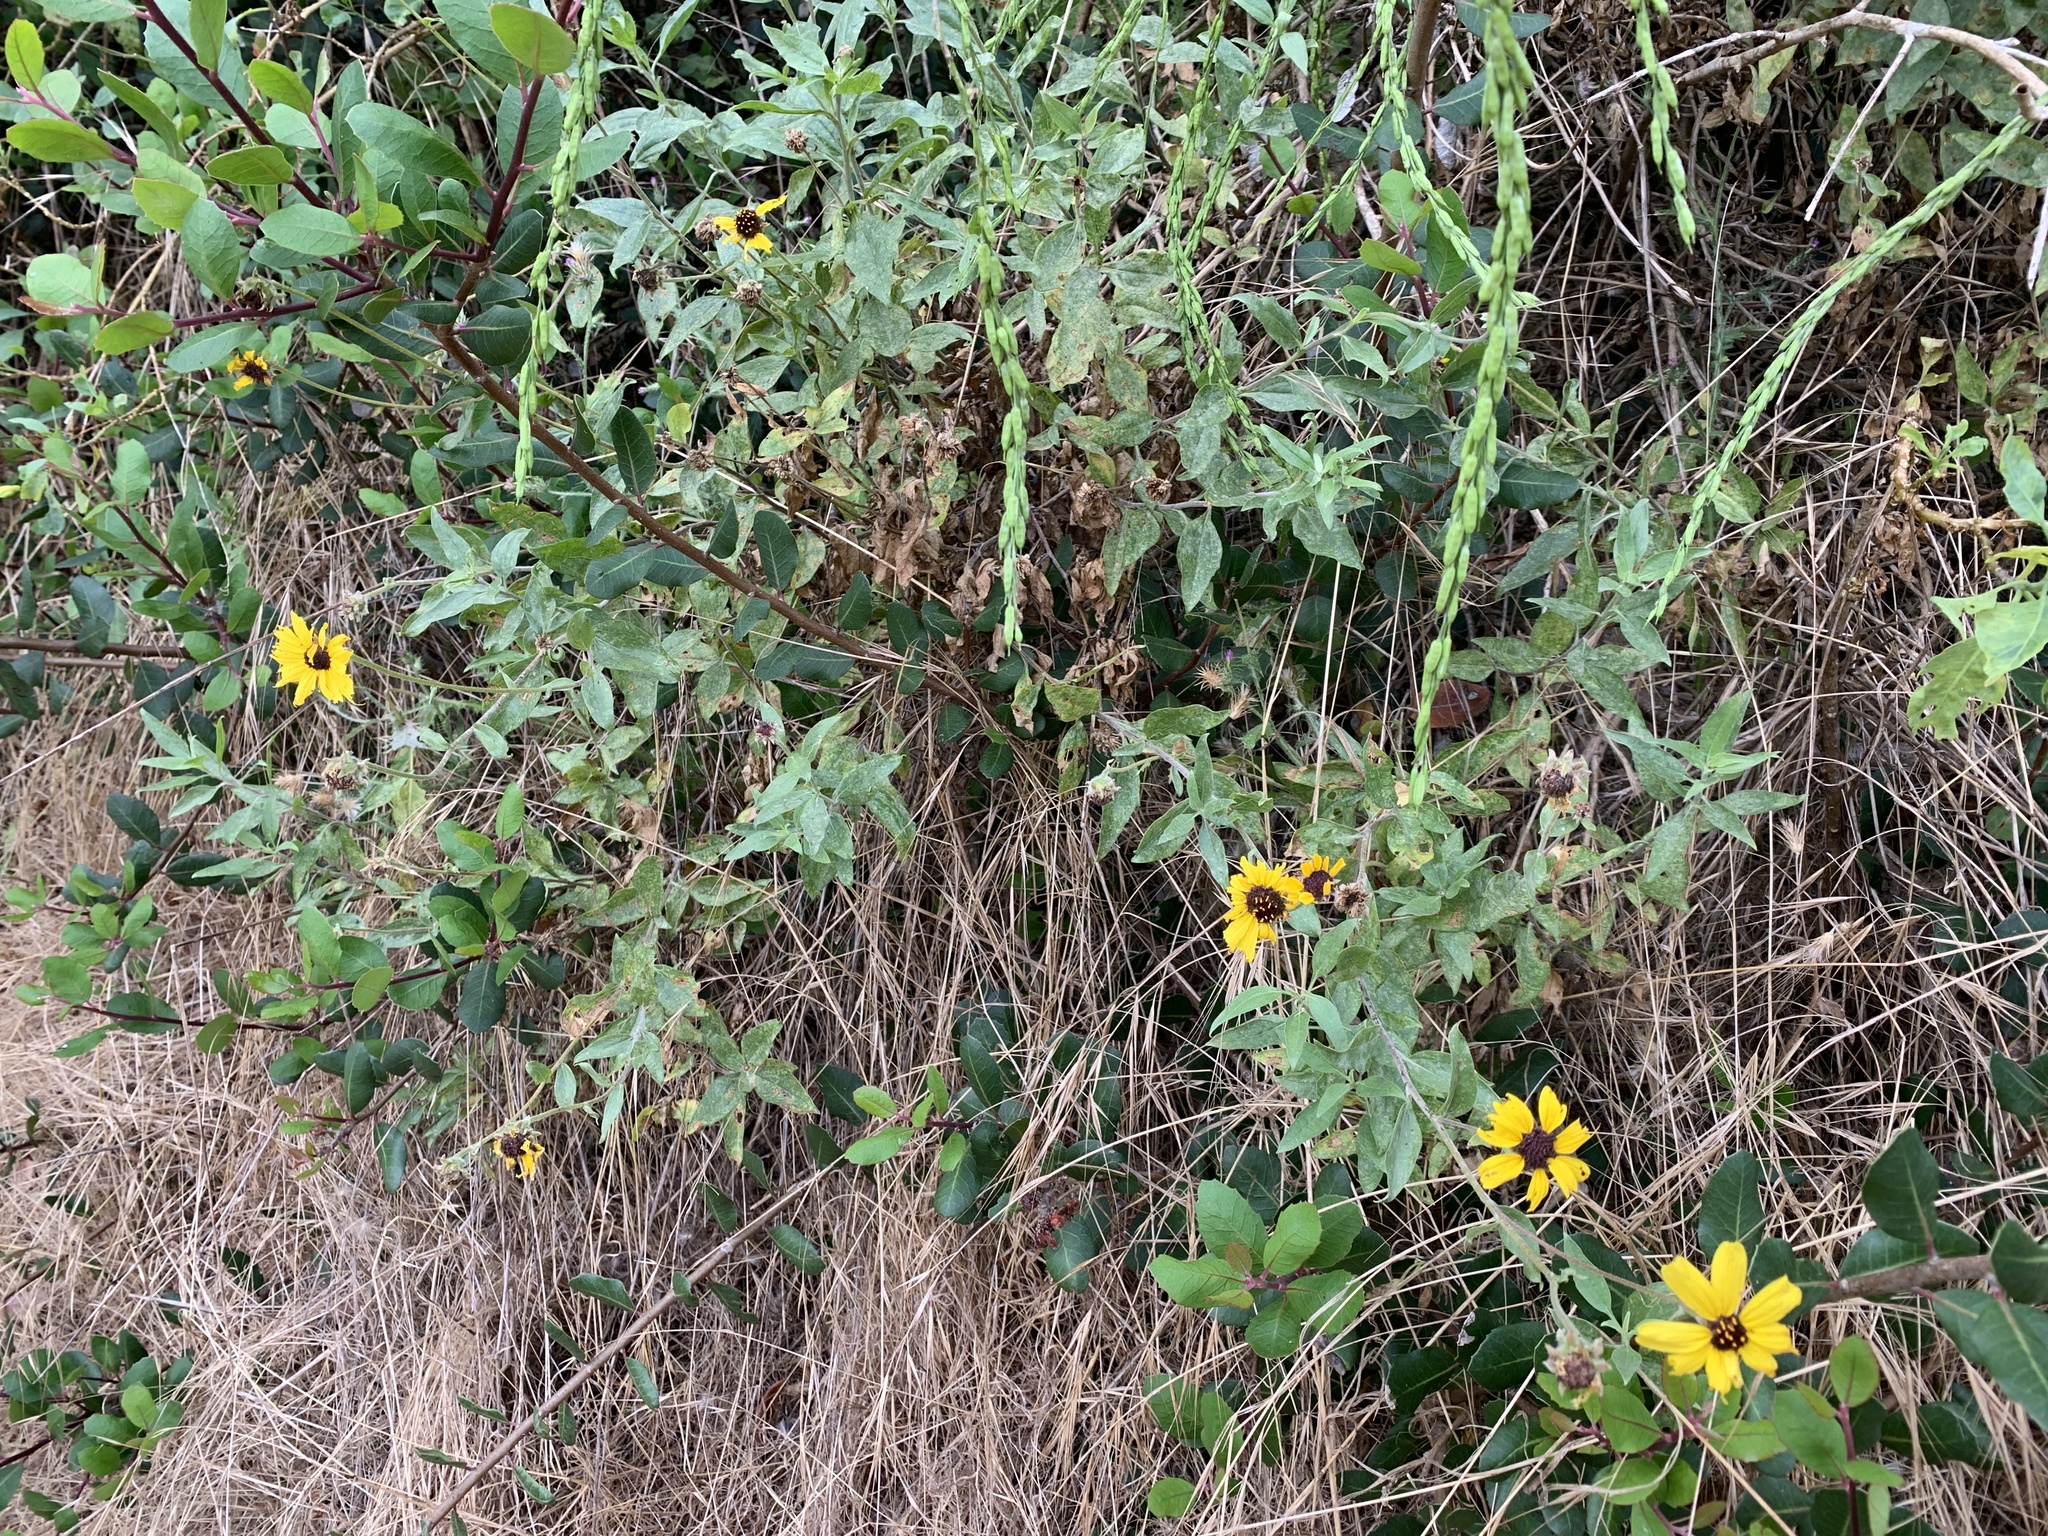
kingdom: Plantae
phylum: Tracheophyta
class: Magnoliopsida
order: Asterales
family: Asteraceae
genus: Encelia
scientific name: Encelia californica
